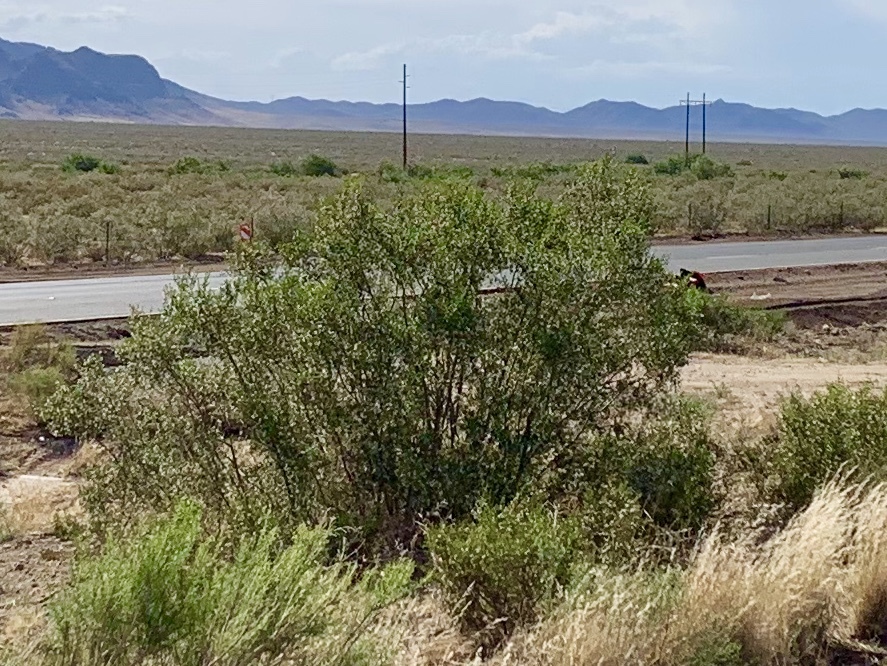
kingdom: Plantae
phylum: Tracheophyta
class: Magnoliopsida
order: Zygophyllales
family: Zygophyllaceae
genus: Larrea
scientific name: Larrea tridentata
